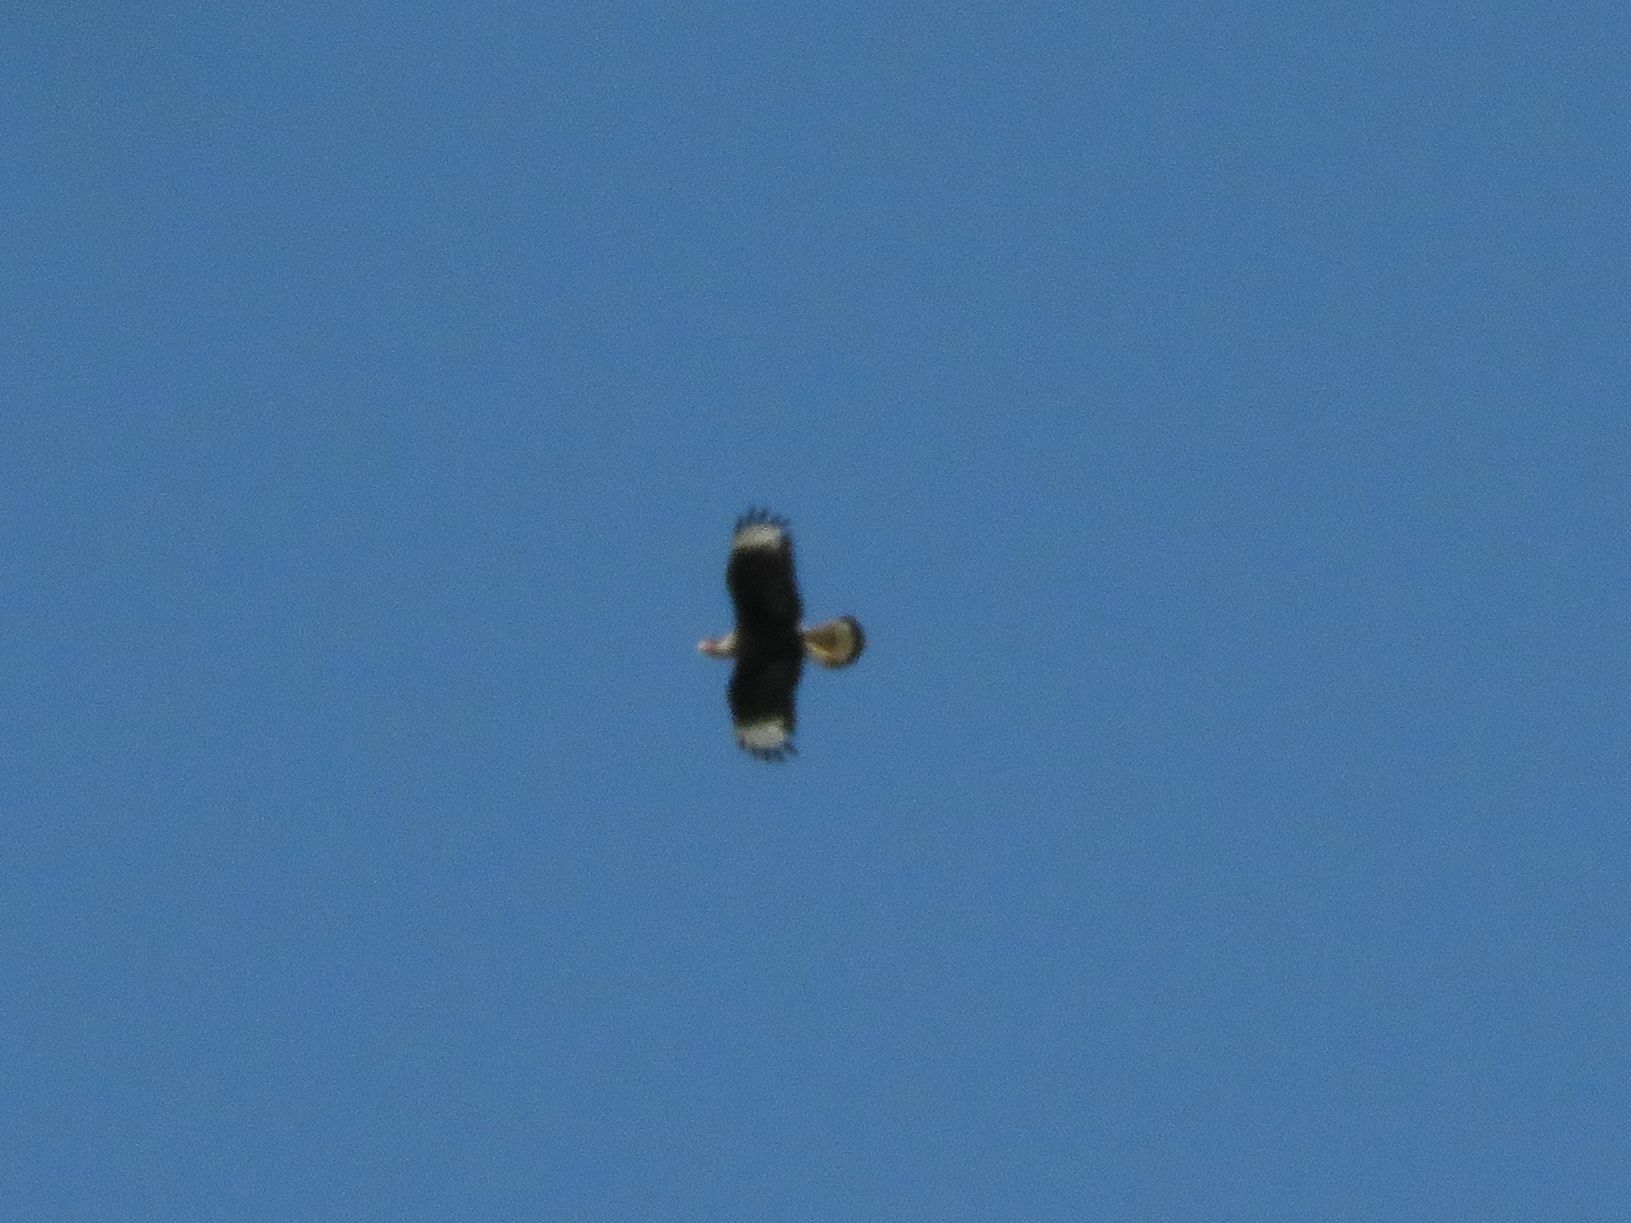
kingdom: Animalia
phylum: Chordata
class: Aves
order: Falconiformes
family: Falconidae
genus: Caracara
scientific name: Caracara plancus
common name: Southern caracara
